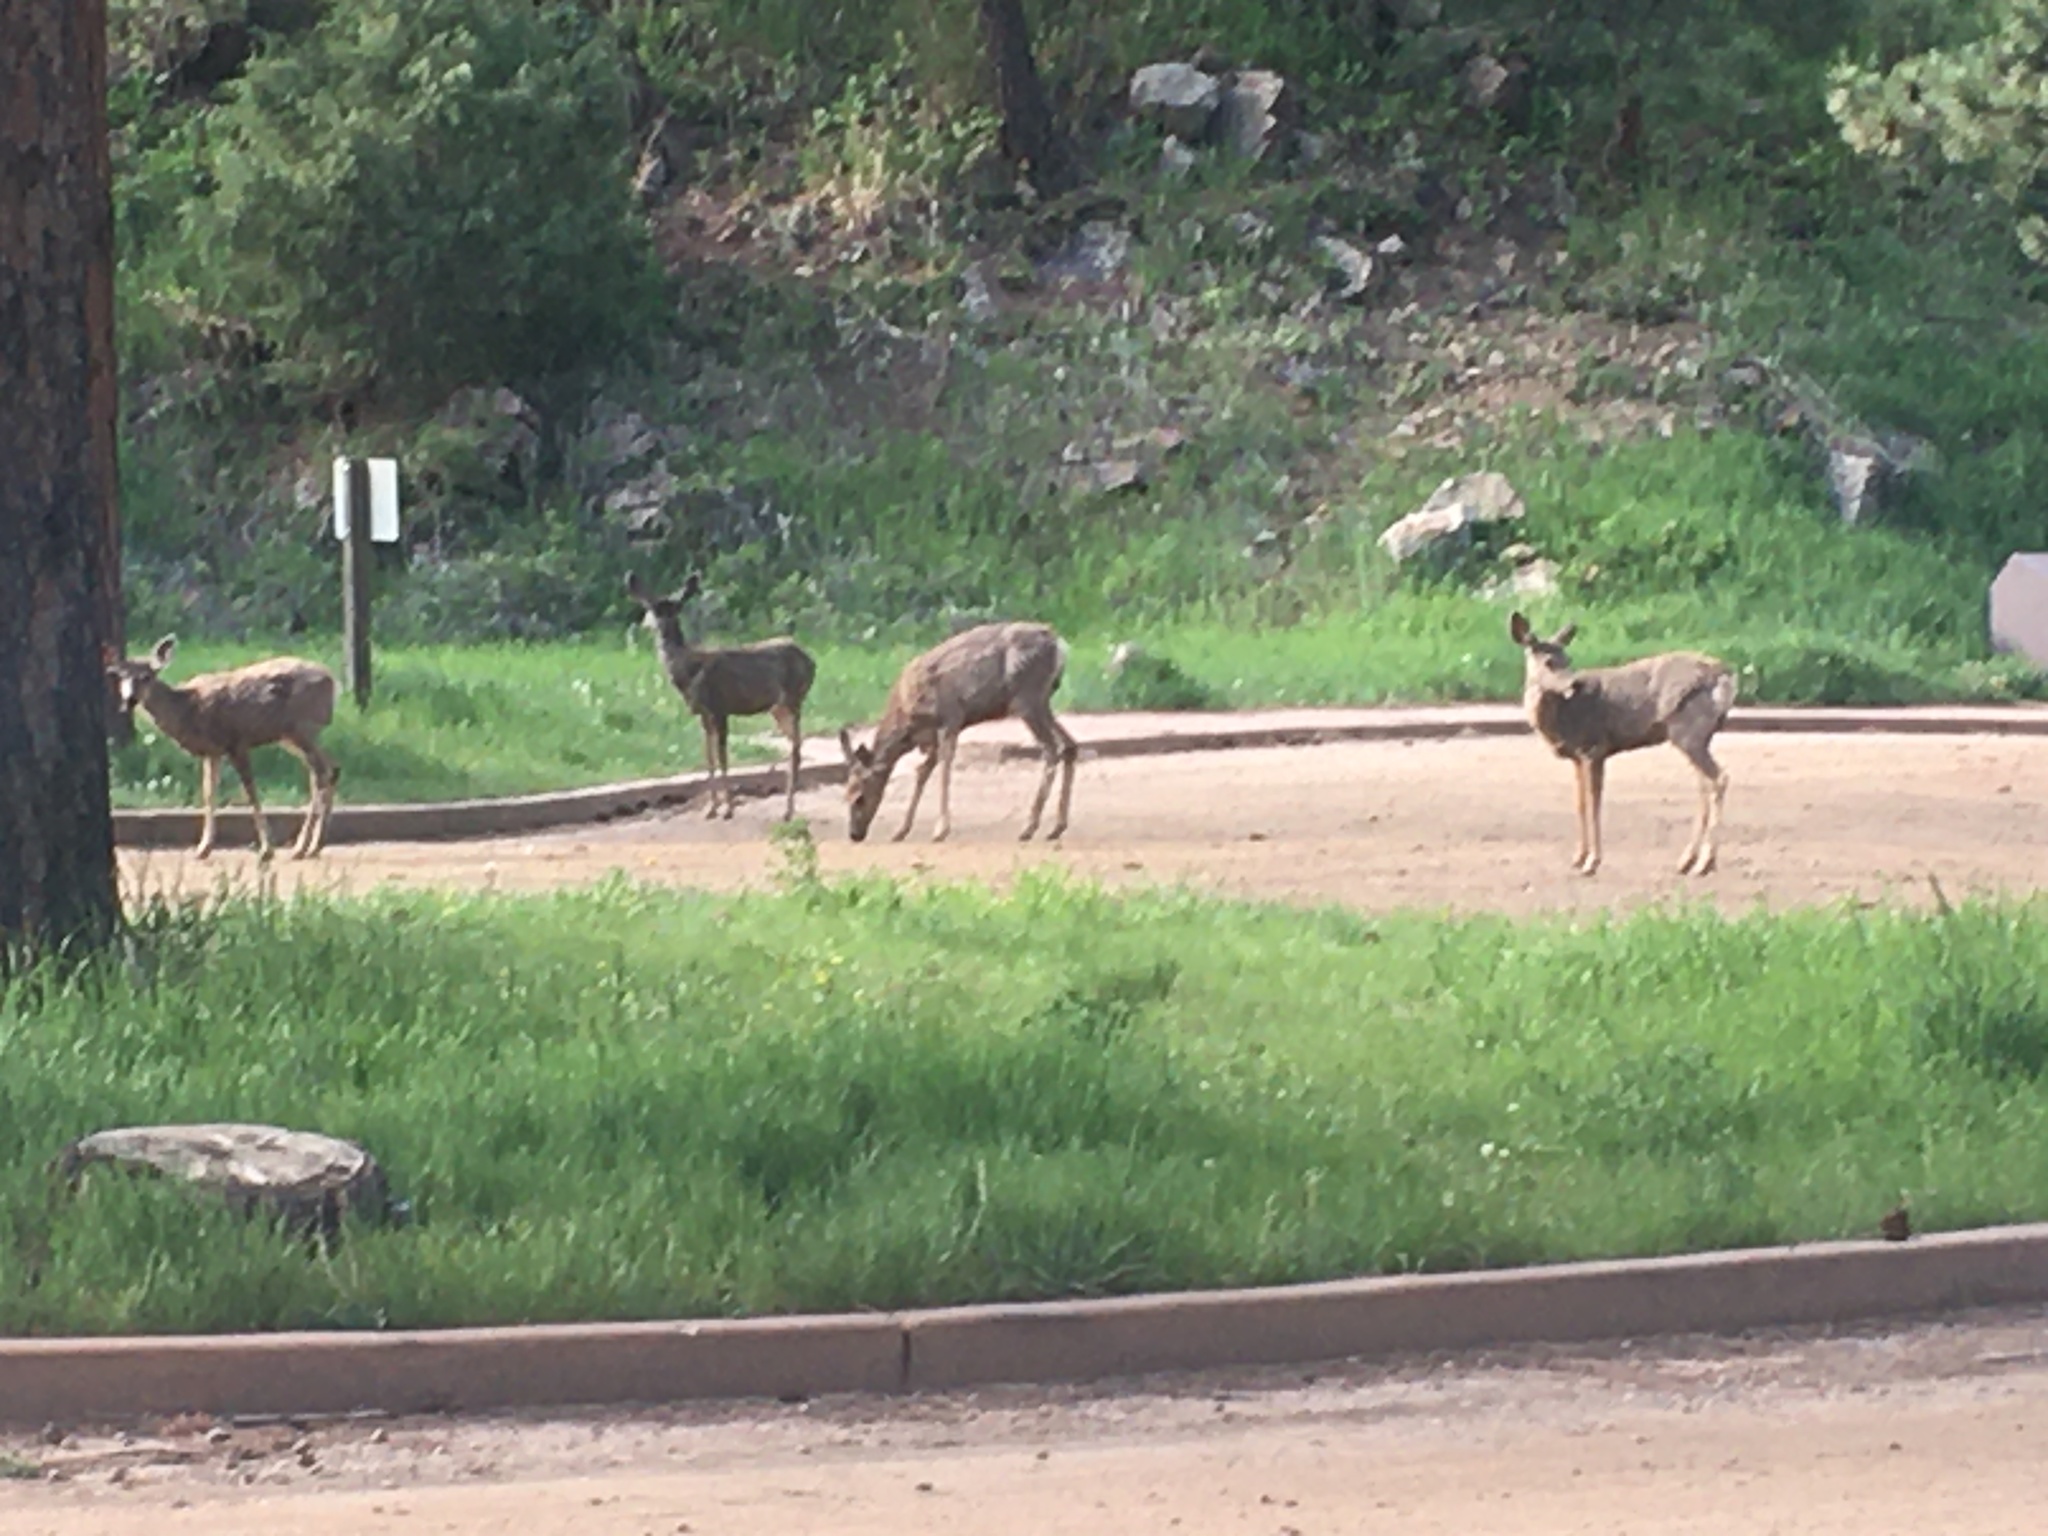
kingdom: Animalia
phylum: Chordata
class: Mammalia
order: Artiodactyla
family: Cervidae
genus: Odocoileus
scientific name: Odocoileus hemionus
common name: Mule deer
